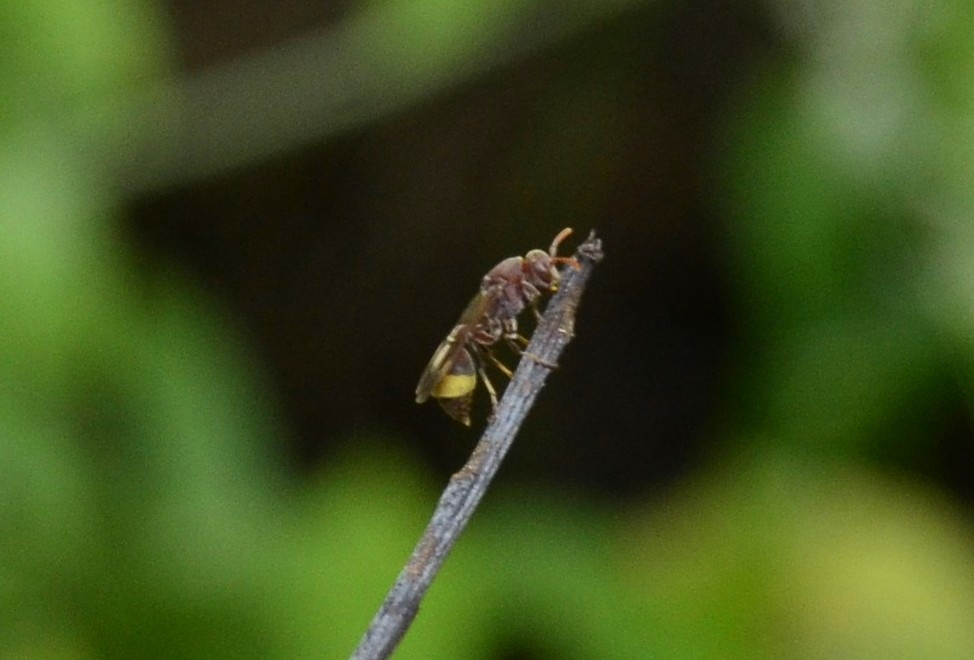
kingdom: Animalia
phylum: Arthropoda
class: Insecta
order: Hymenoptera
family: Vespidae
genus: Ropalidia
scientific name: Ropalidia
